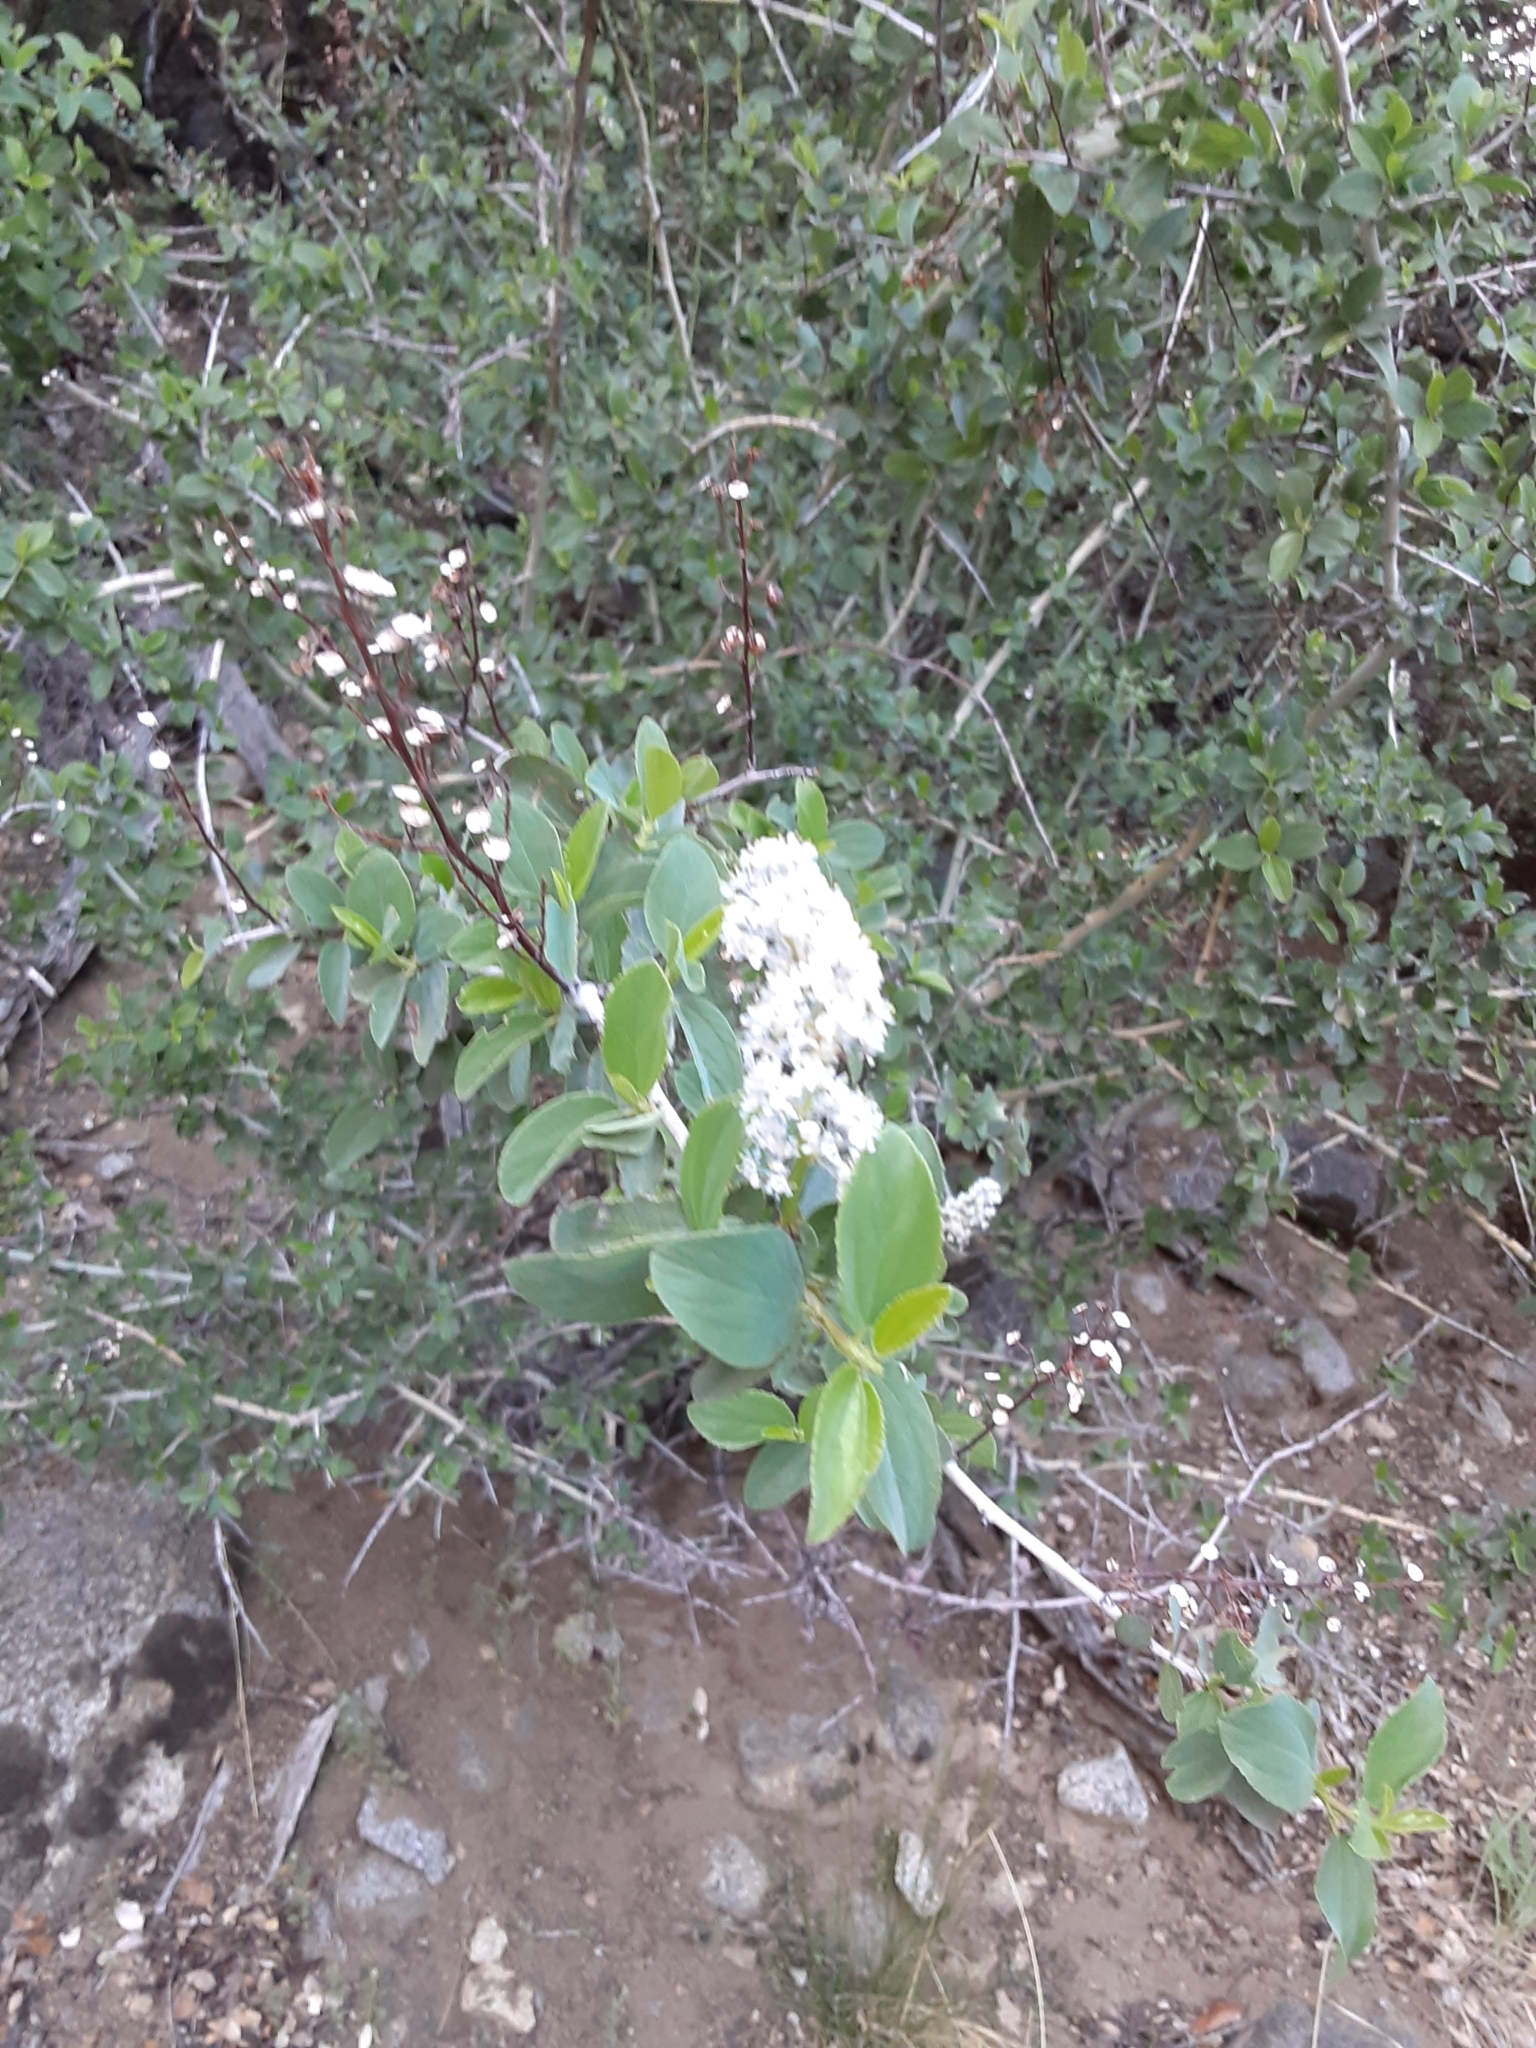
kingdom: Plantae
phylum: Tracheophyta
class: Magnoliopsida
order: Rosales
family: Rhamnaceae
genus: Ceanothus
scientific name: Ceanothus integerrimus
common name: Deerbrush ceanothus
